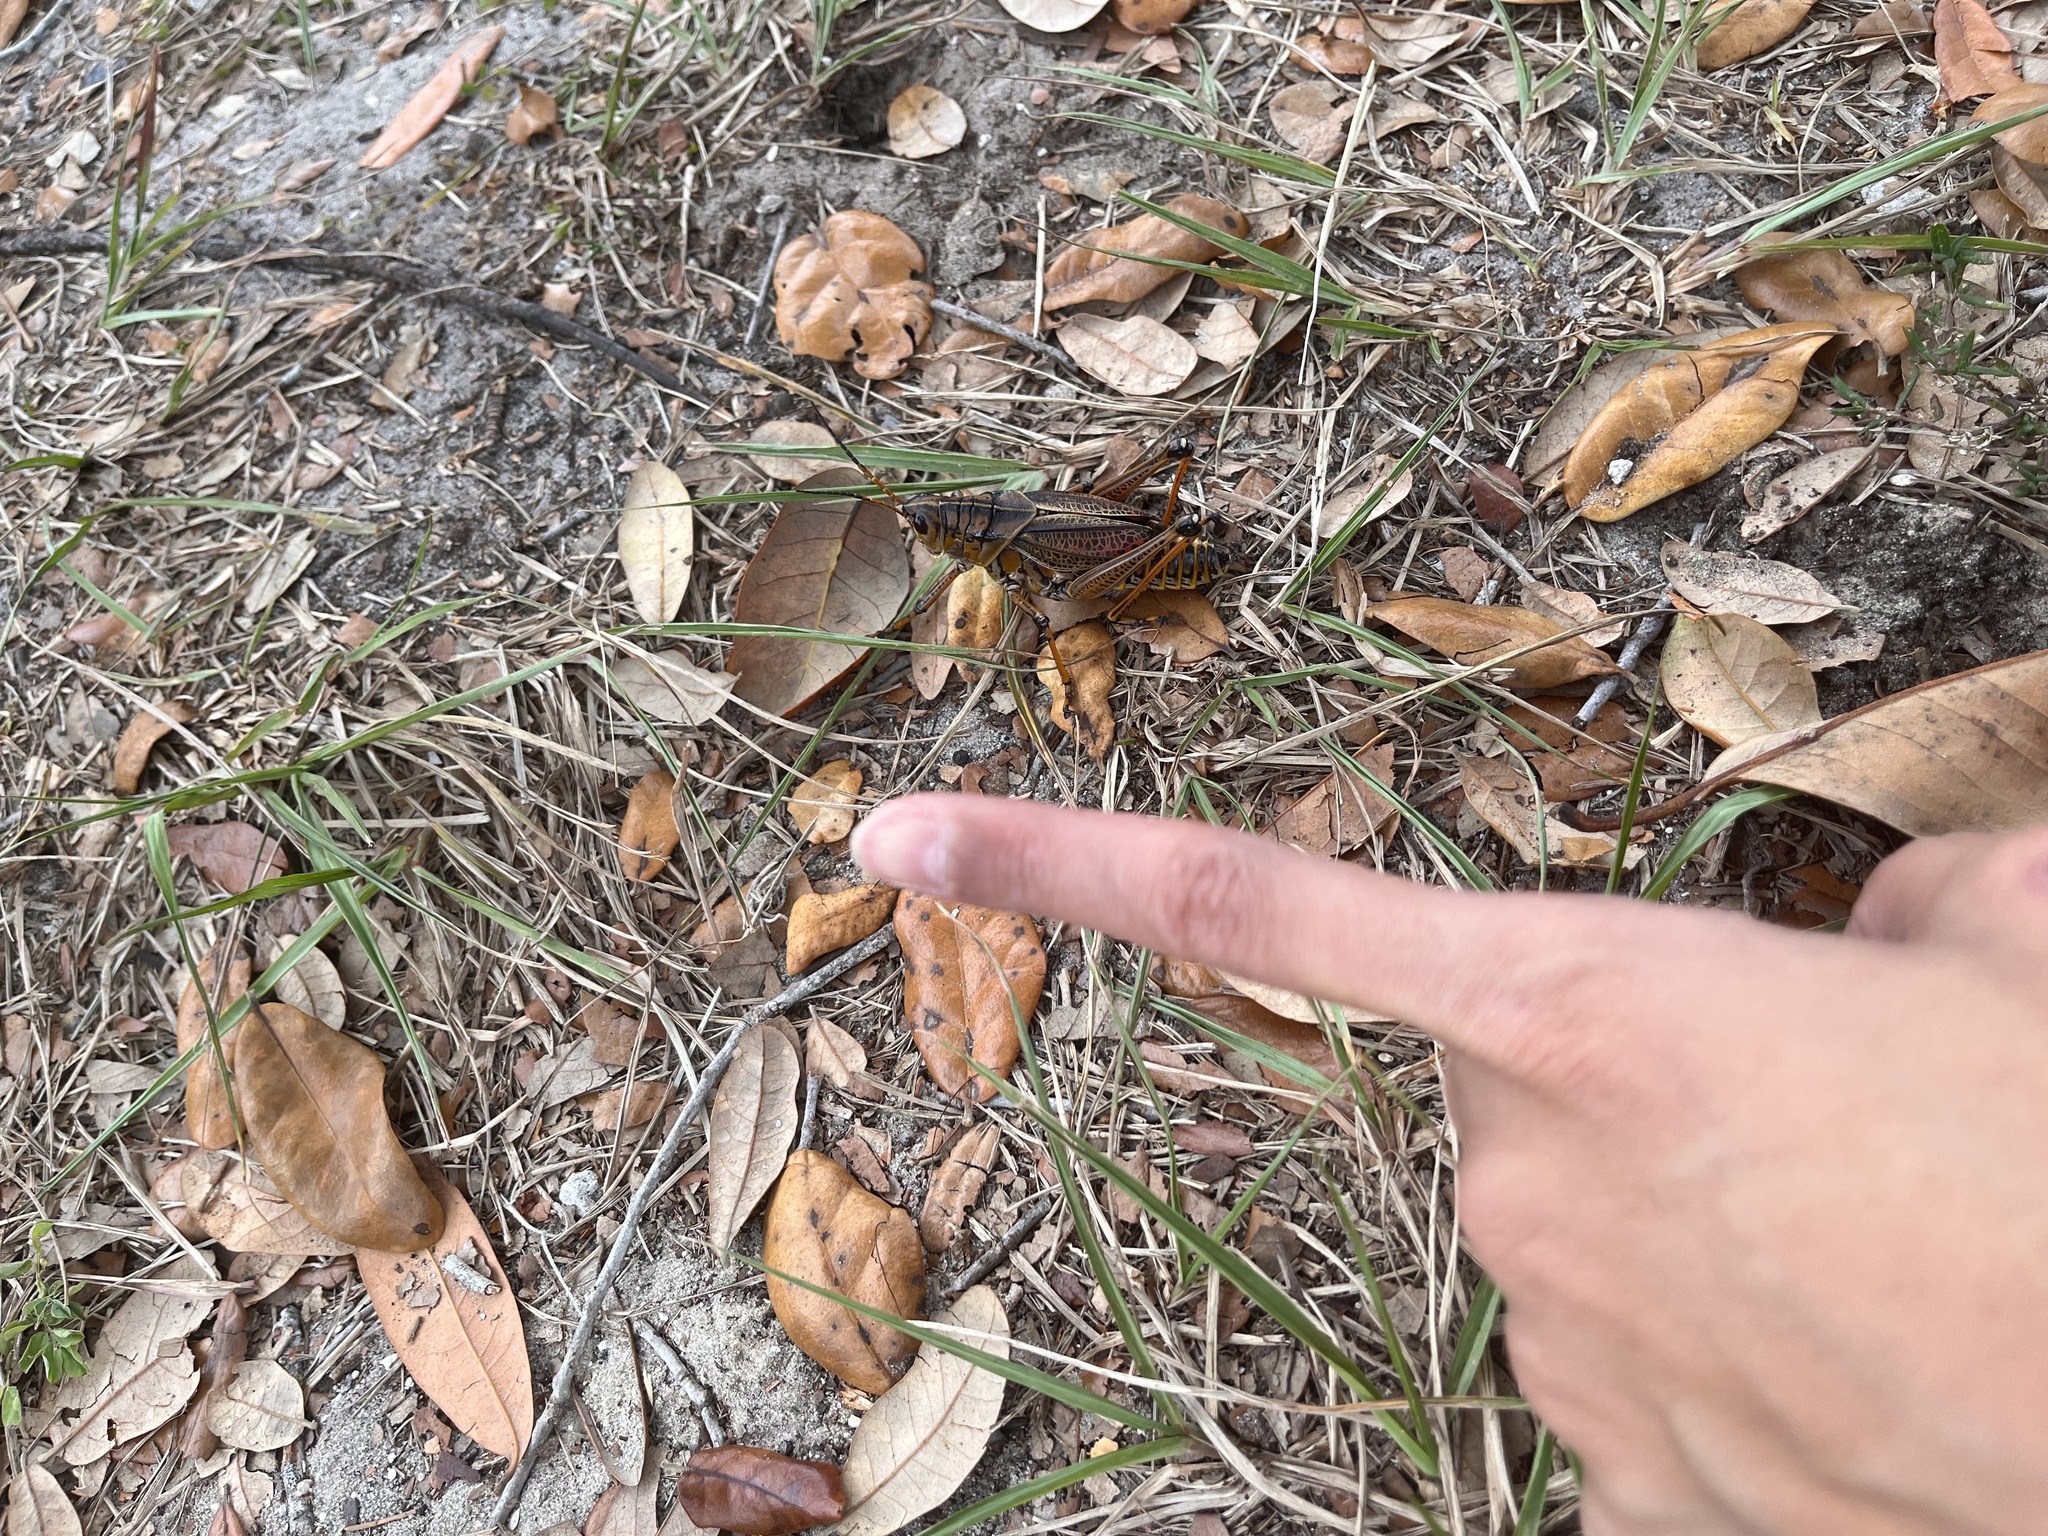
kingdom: Animalia
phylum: Arthropoda
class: Insecta
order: Orthoptera
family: Romaleidae
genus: Romalea
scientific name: Romalea microptera
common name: Eastern lubber grasshopper
